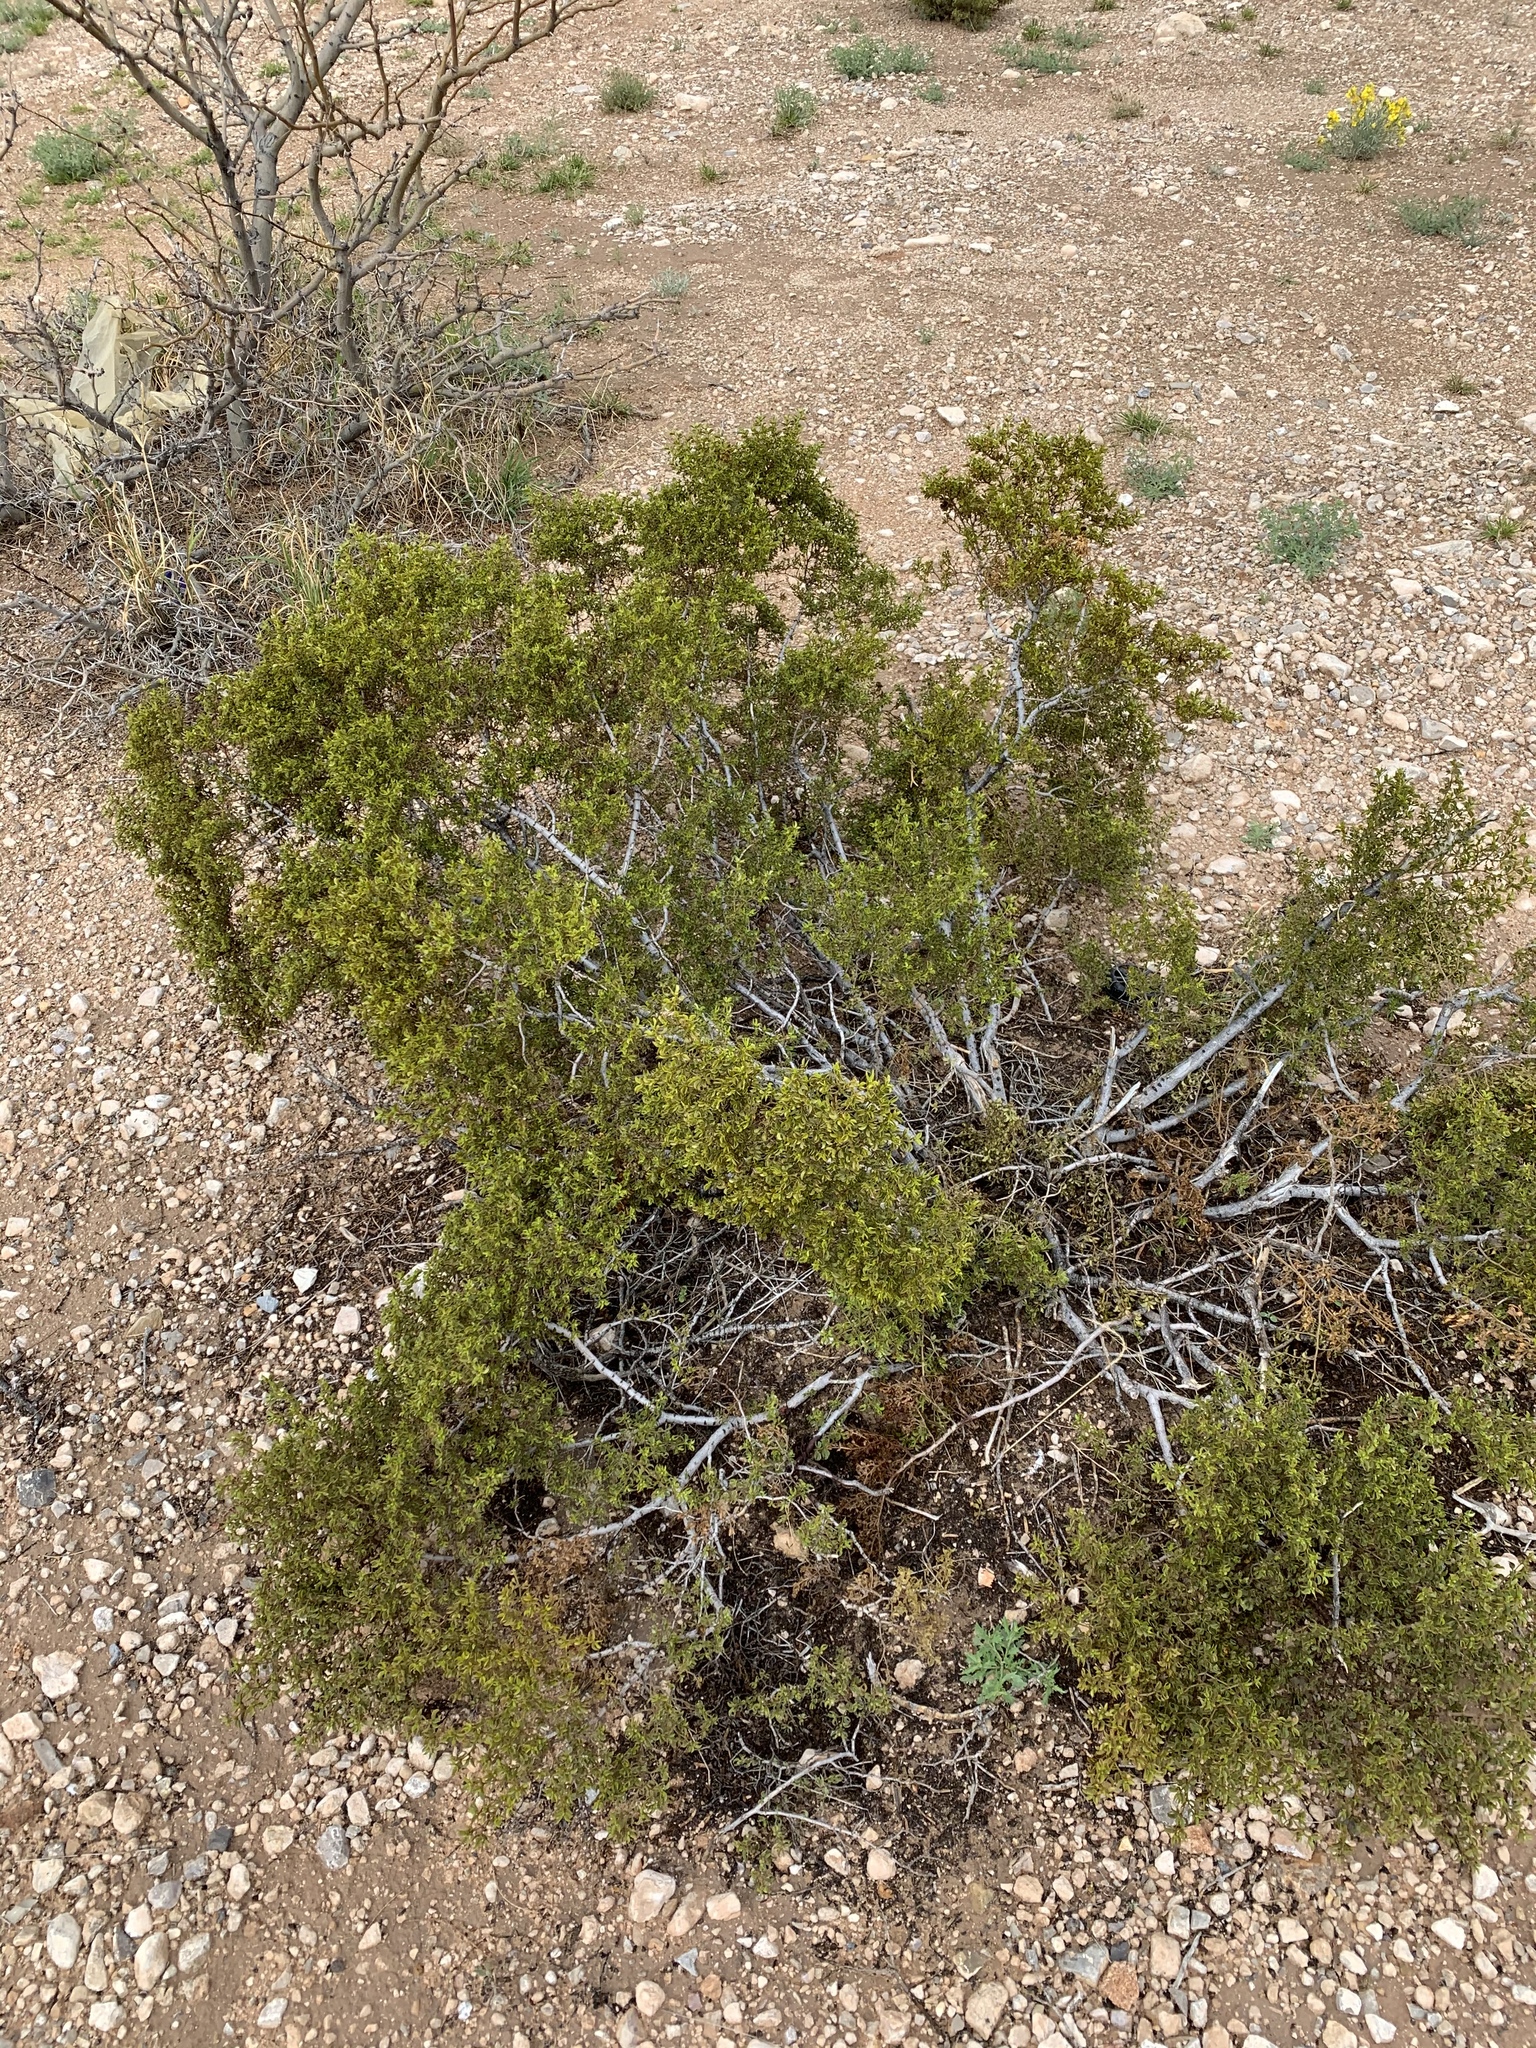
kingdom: Plantae
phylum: Tracheophyta
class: Magnoliopsida
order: Zygophyllales
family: Zygophyllaceae
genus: Larrea
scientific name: Larrea tridentata
